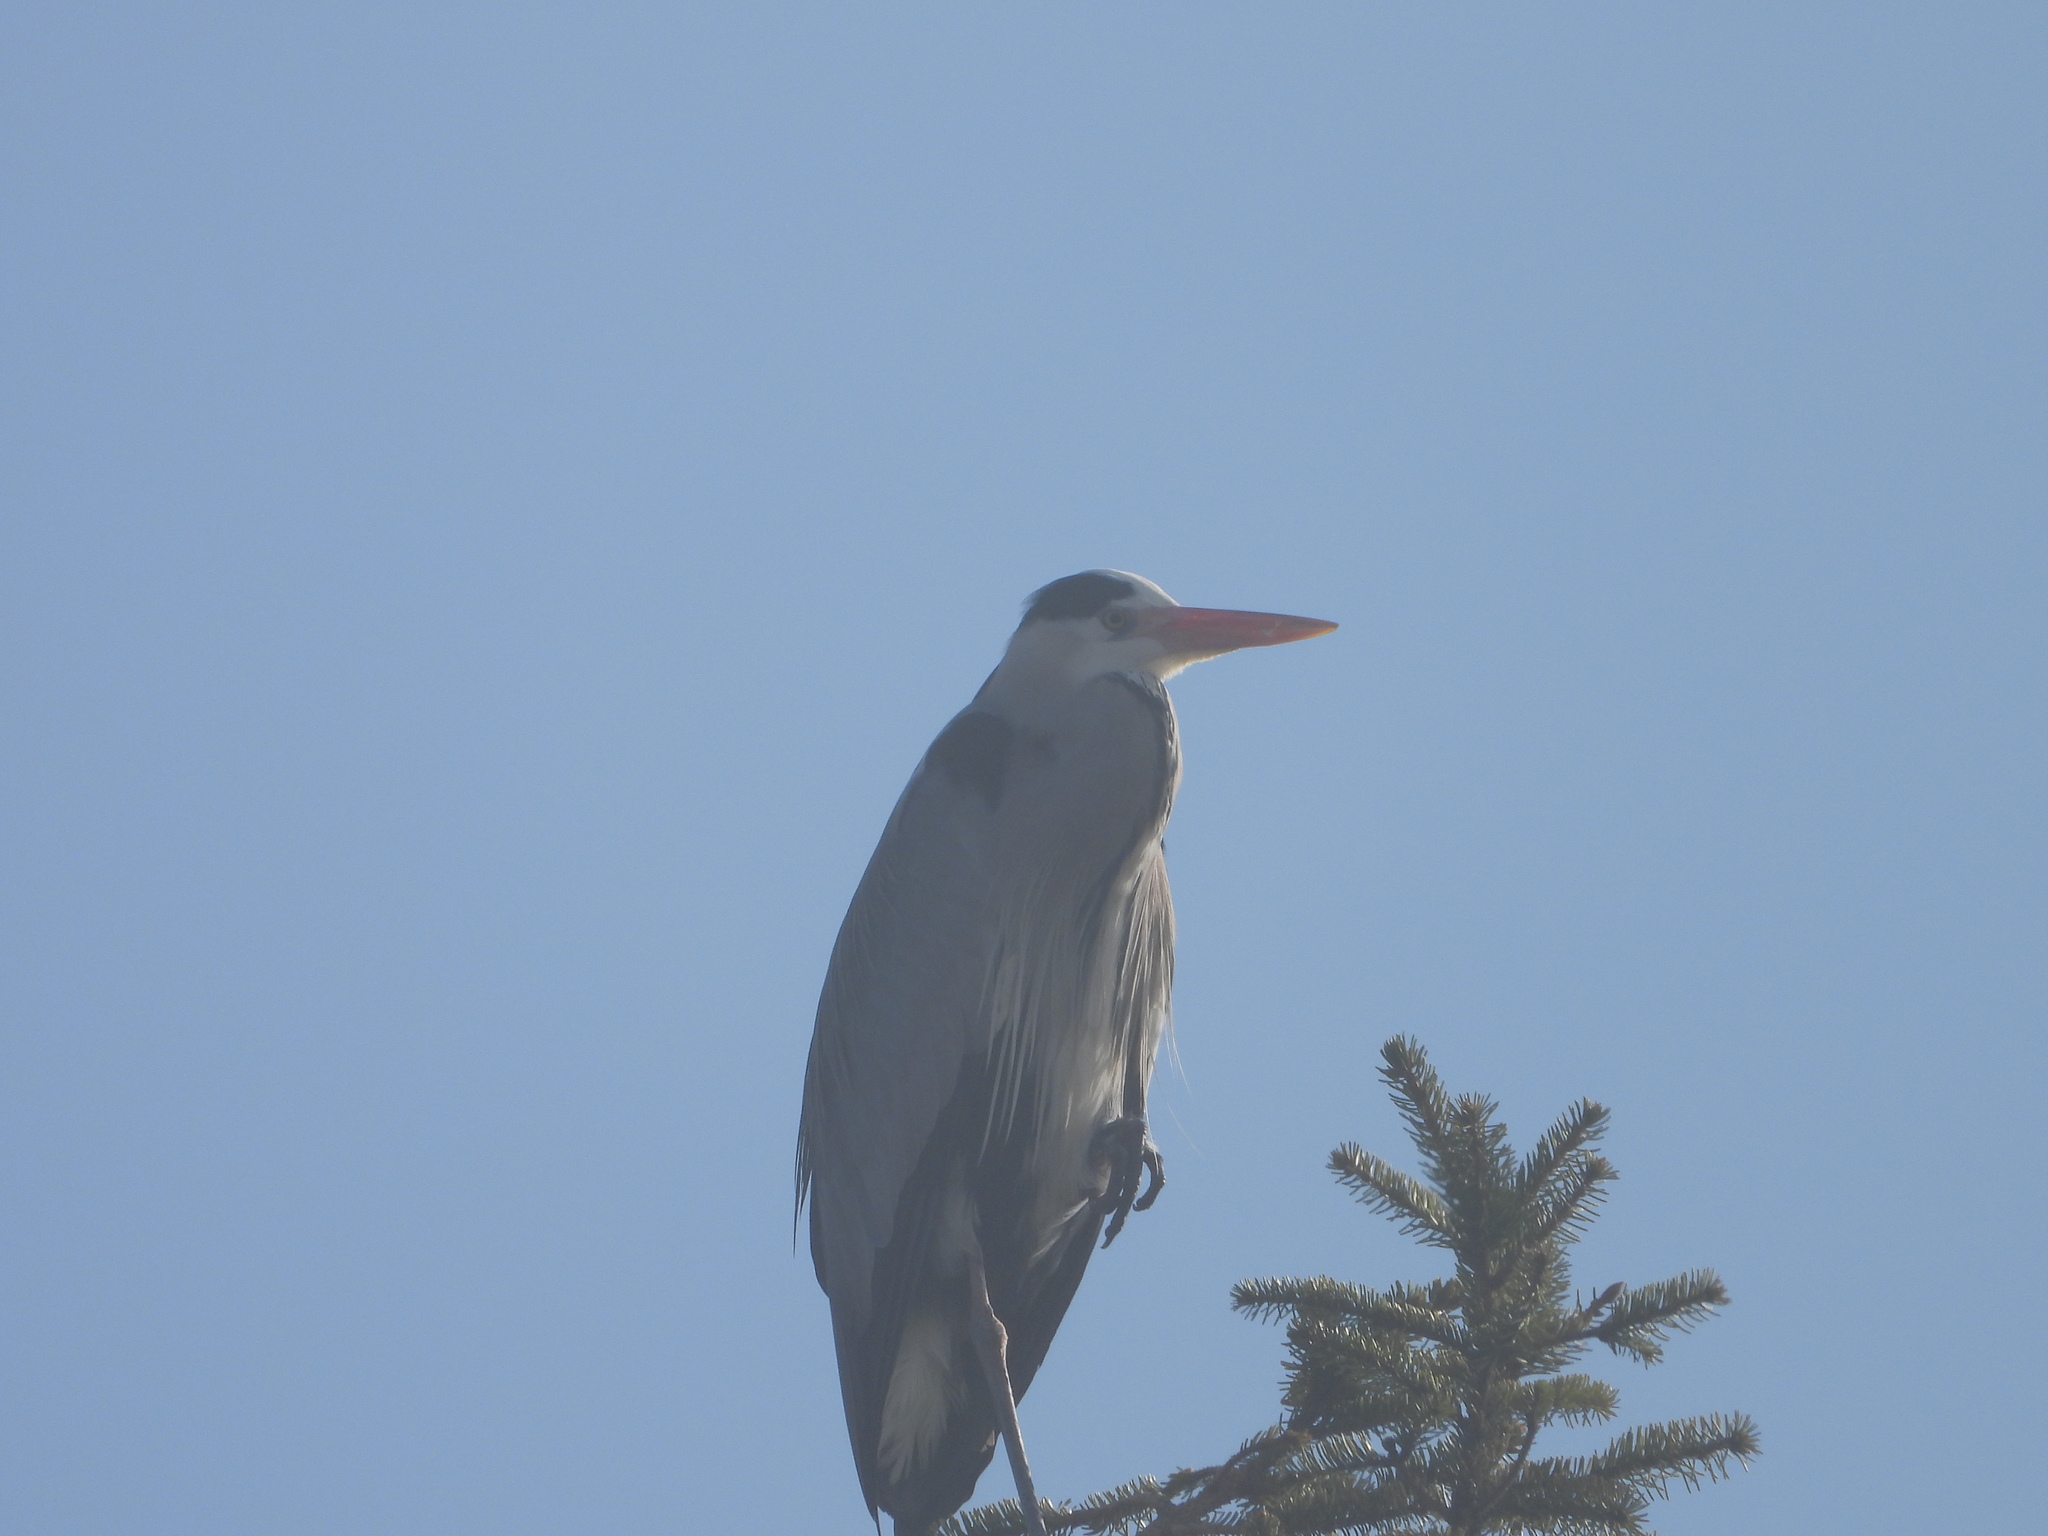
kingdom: Animalia
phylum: Chordata
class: Aves
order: Pelecaniformes
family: Ardeidae
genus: Ardea
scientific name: Ardea cinerea
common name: Grey heron
